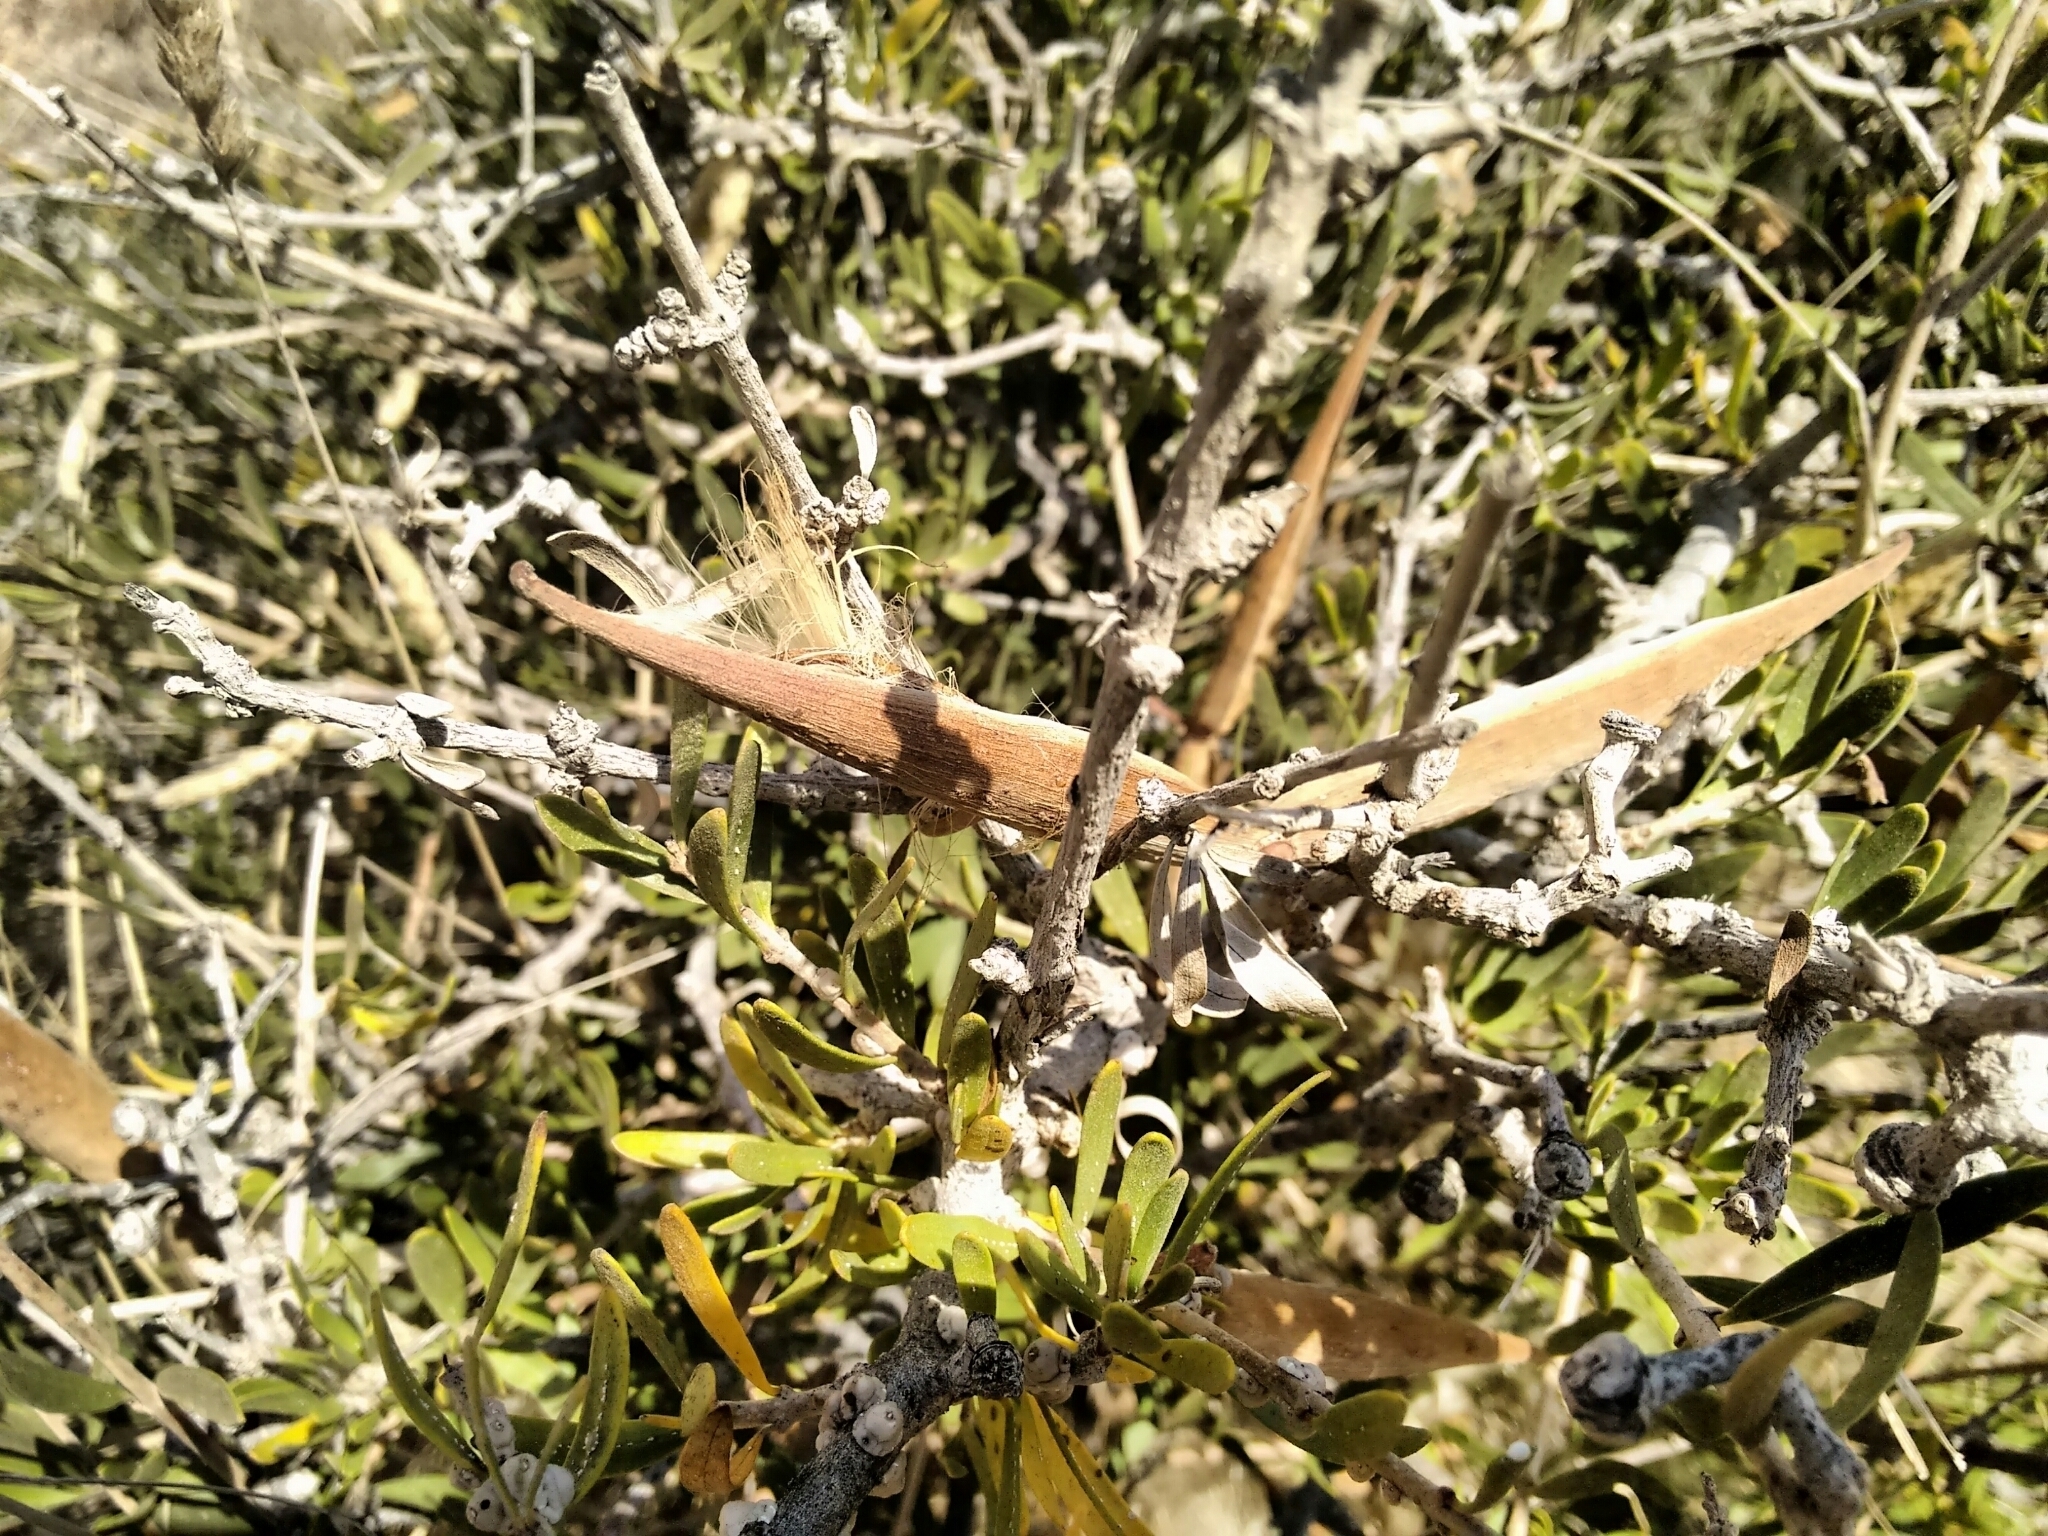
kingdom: Plantae
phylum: Tracheophyta
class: Magnoliopsida
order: Gentianales
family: Apocynaceae
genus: Periploca
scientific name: Periploca laevigata
